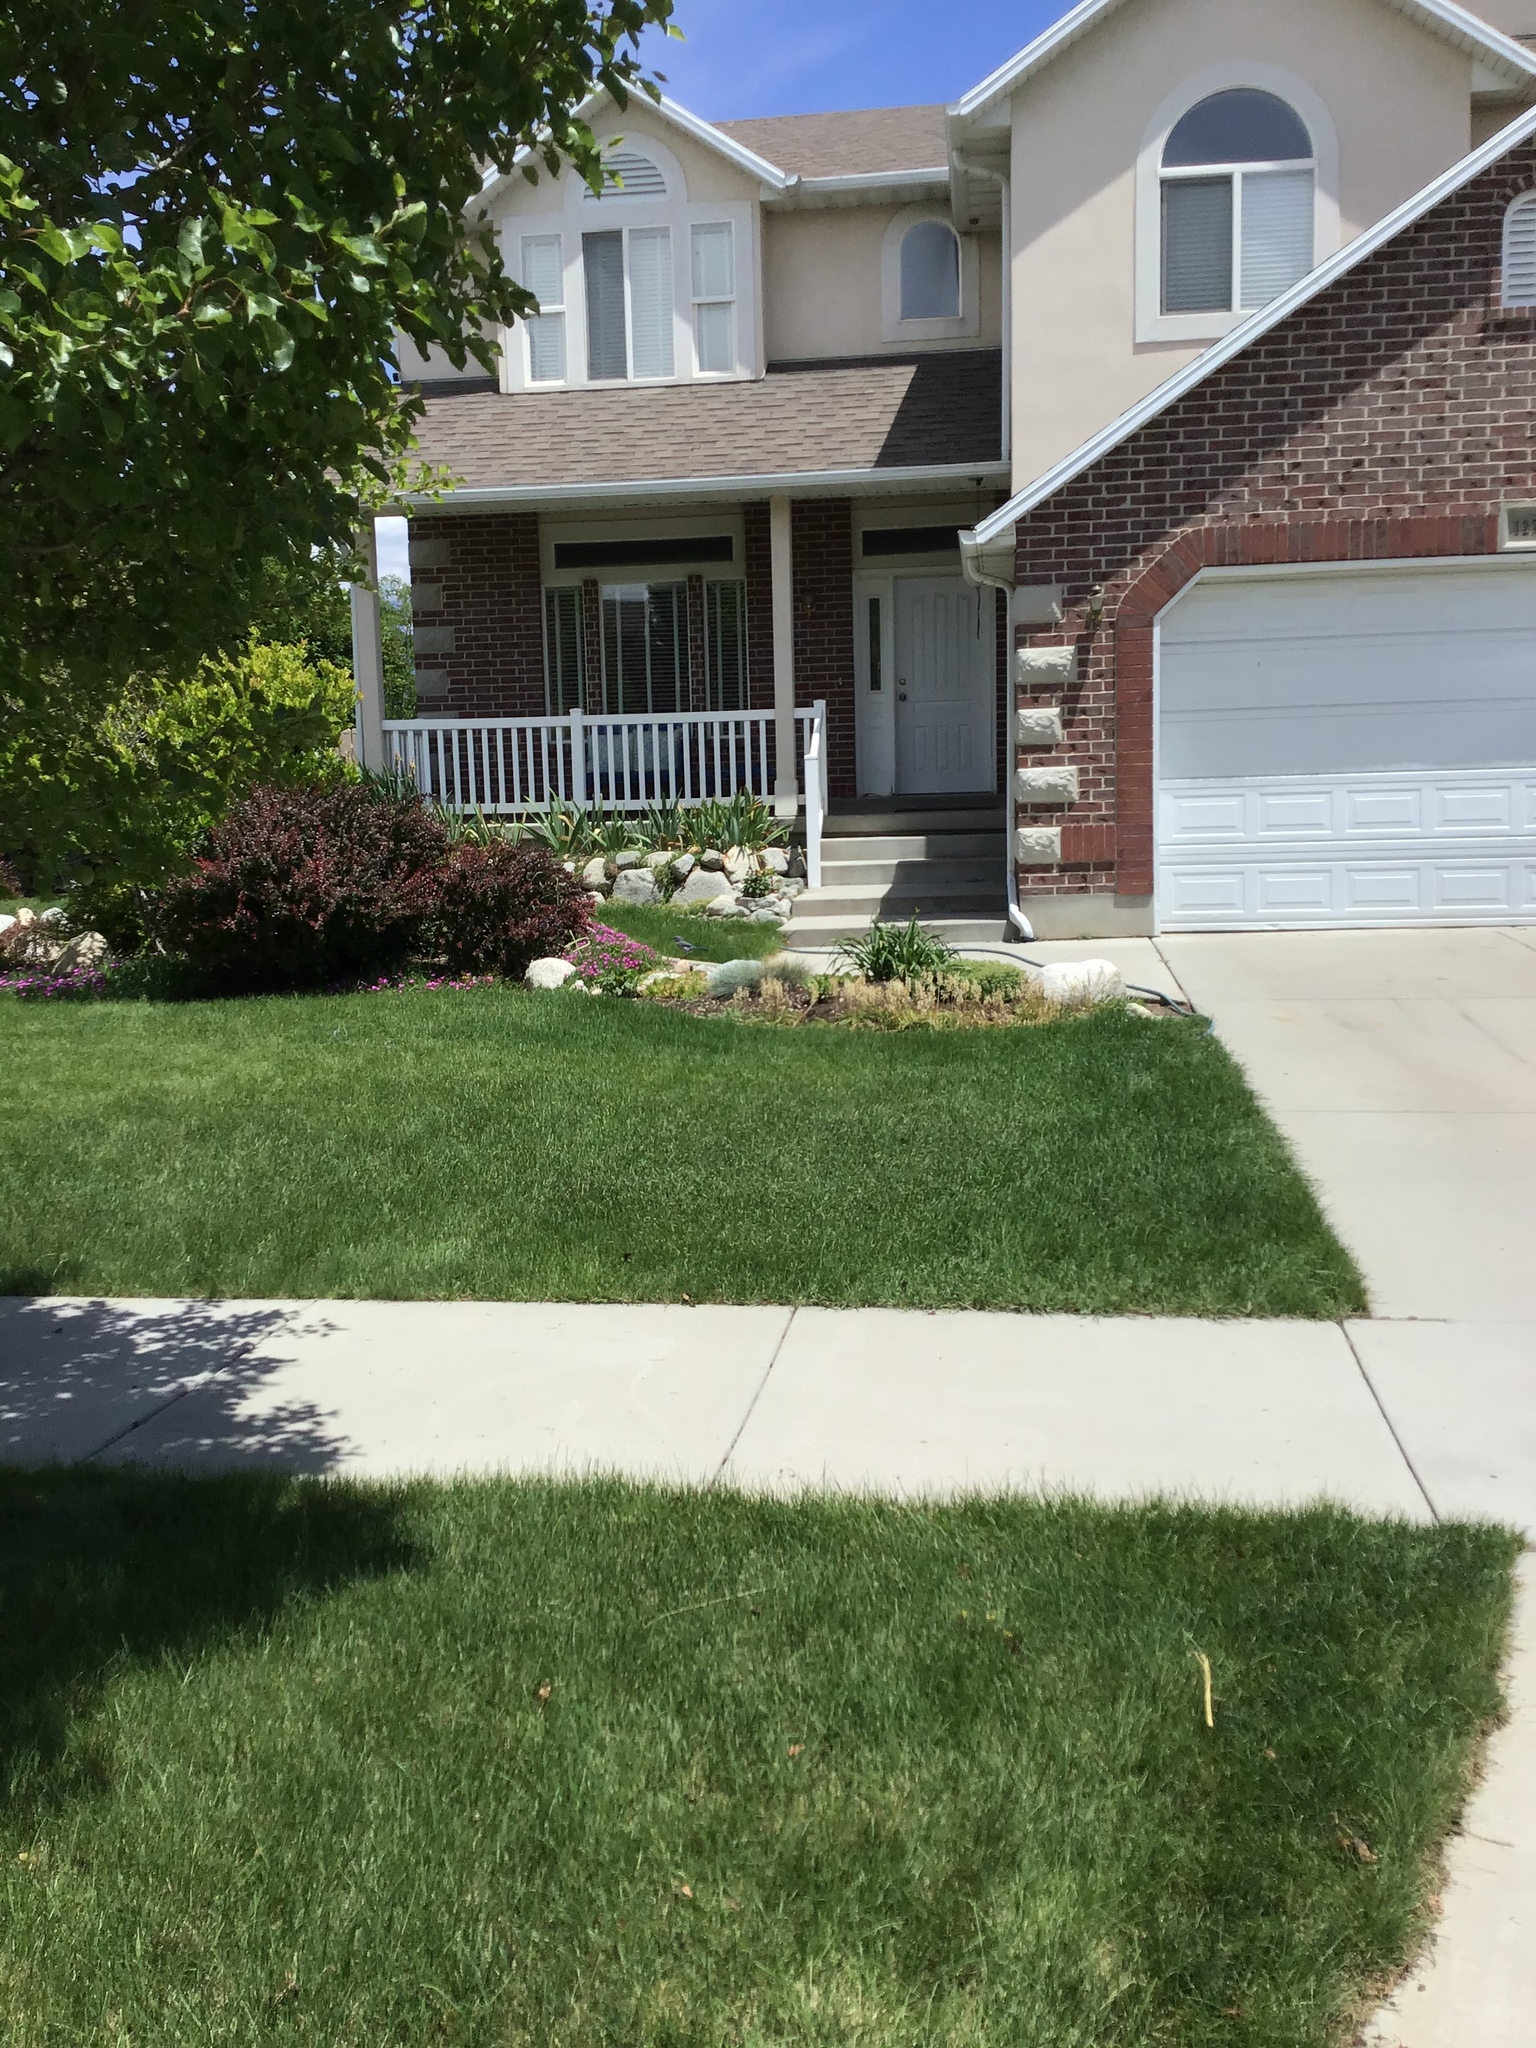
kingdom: Animalia
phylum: Chordata
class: Aves
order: Passeriformes
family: Corvidae
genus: Aphelocoma
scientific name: Aphelocoma woodhouseii
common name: Woodhouse's scrub-jay
